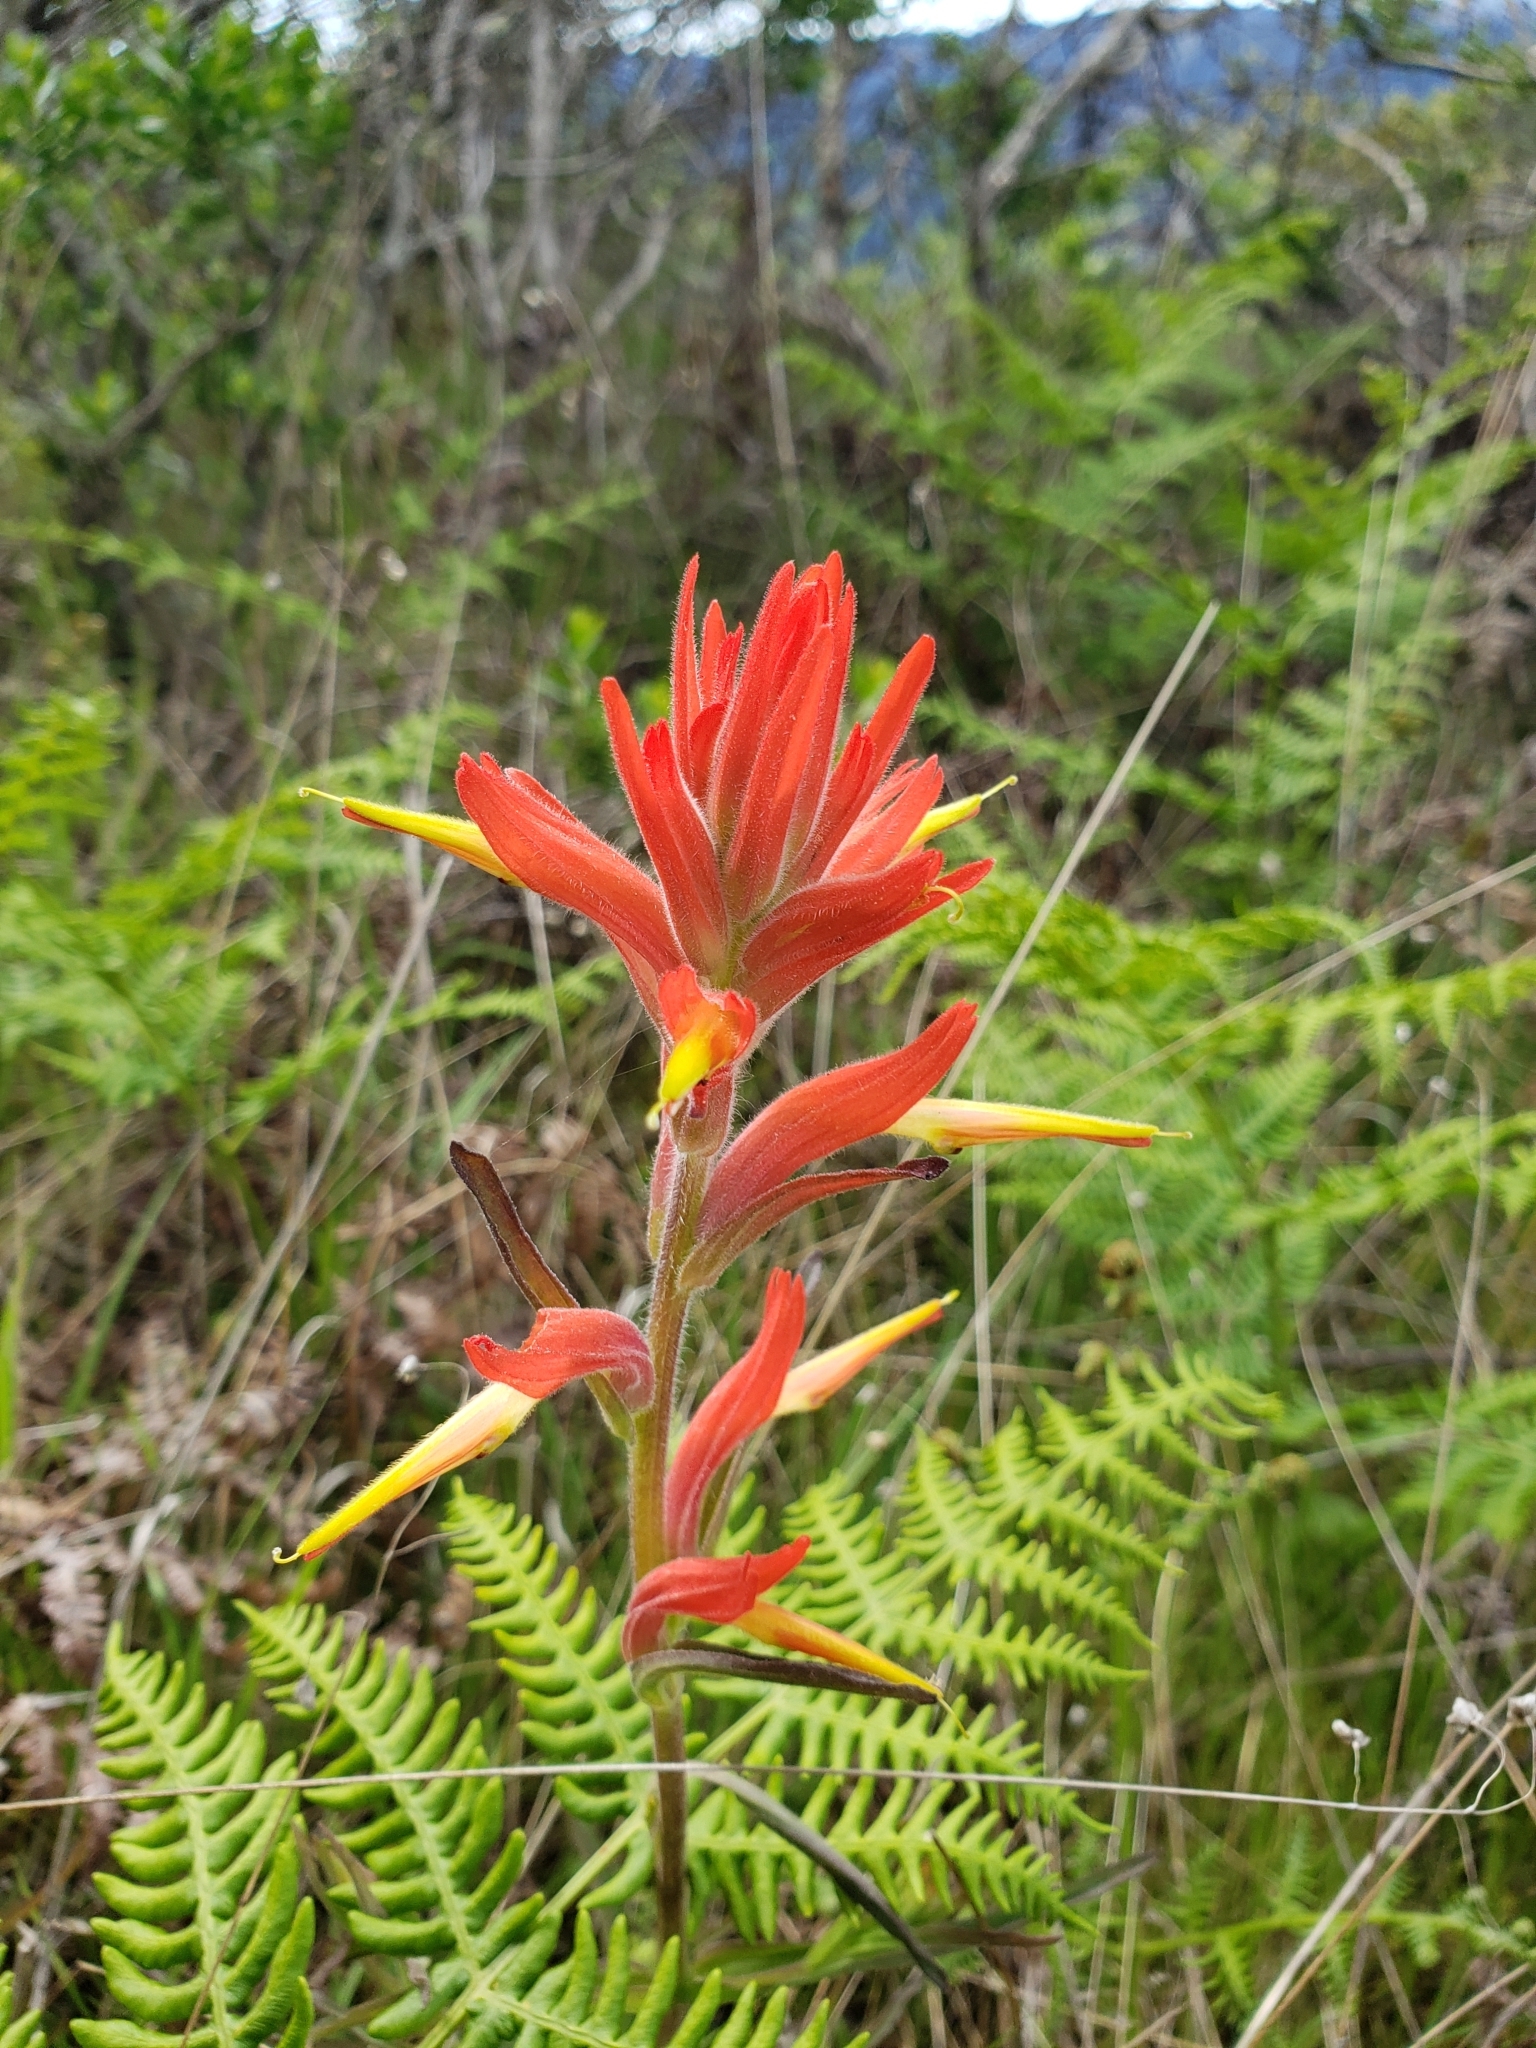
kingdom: Plantae
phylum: Tracheophyta
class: Magnoliopsida
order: Lamiales
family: Orobanchaceae
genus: Castilleja
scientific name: Castilleja subinclusa
